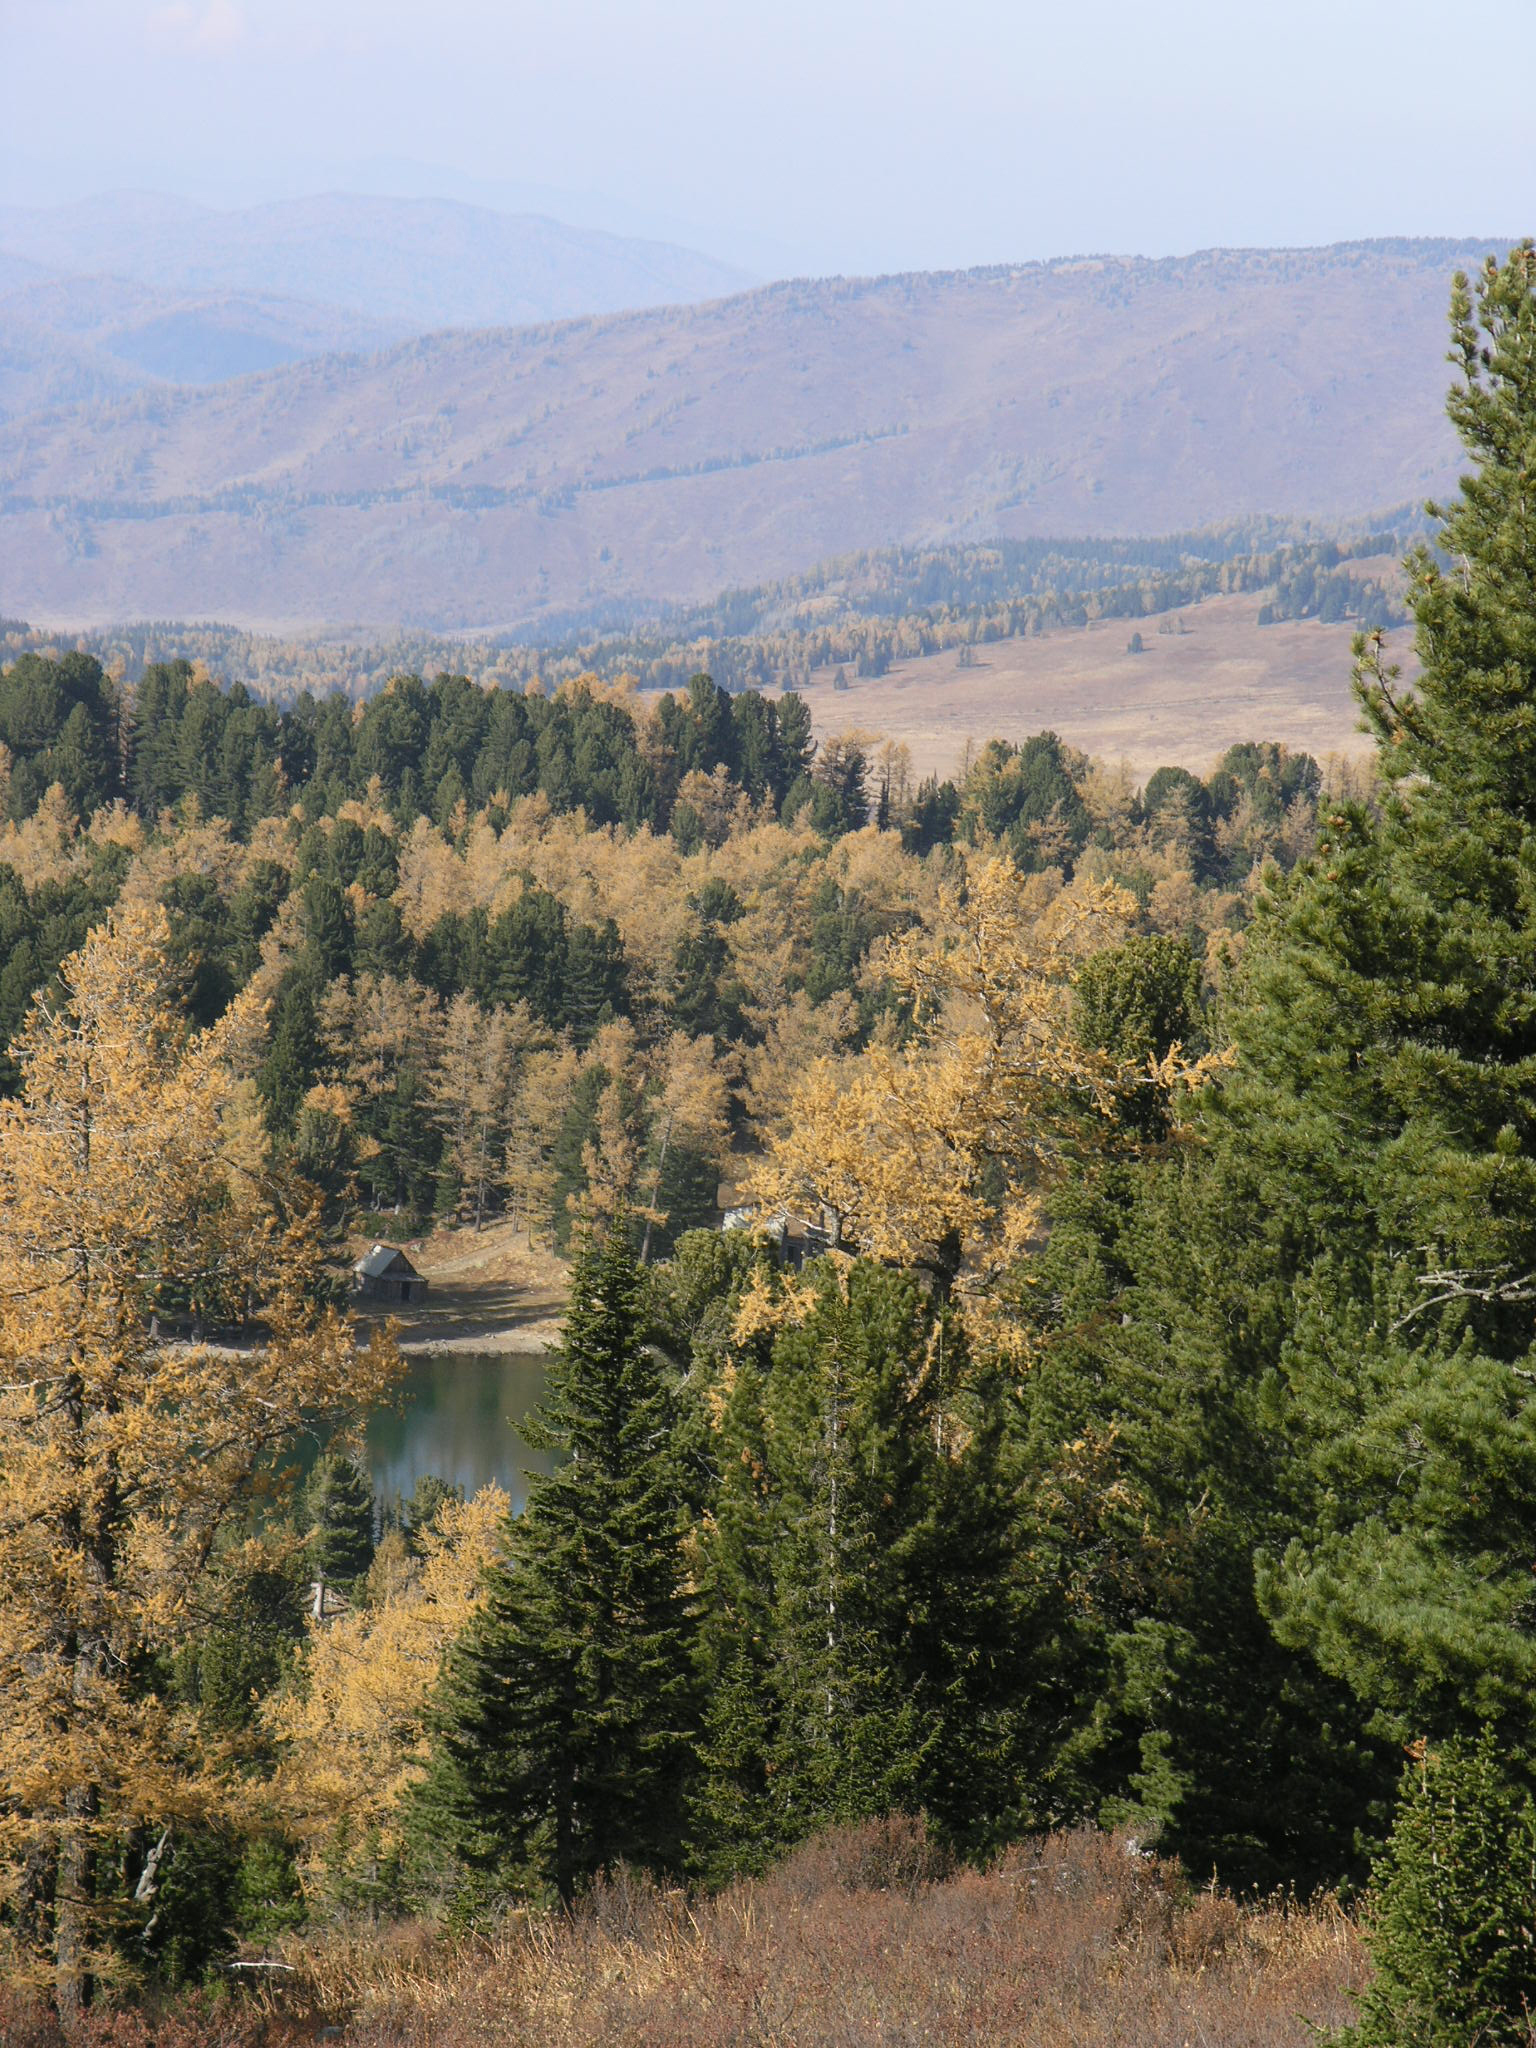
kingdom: Plantae
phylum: Tracheophyta
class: Pinopsida
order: Pinales
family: Pinaceae
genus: Picea
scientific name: Picea obovata
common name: Siberian spruce
